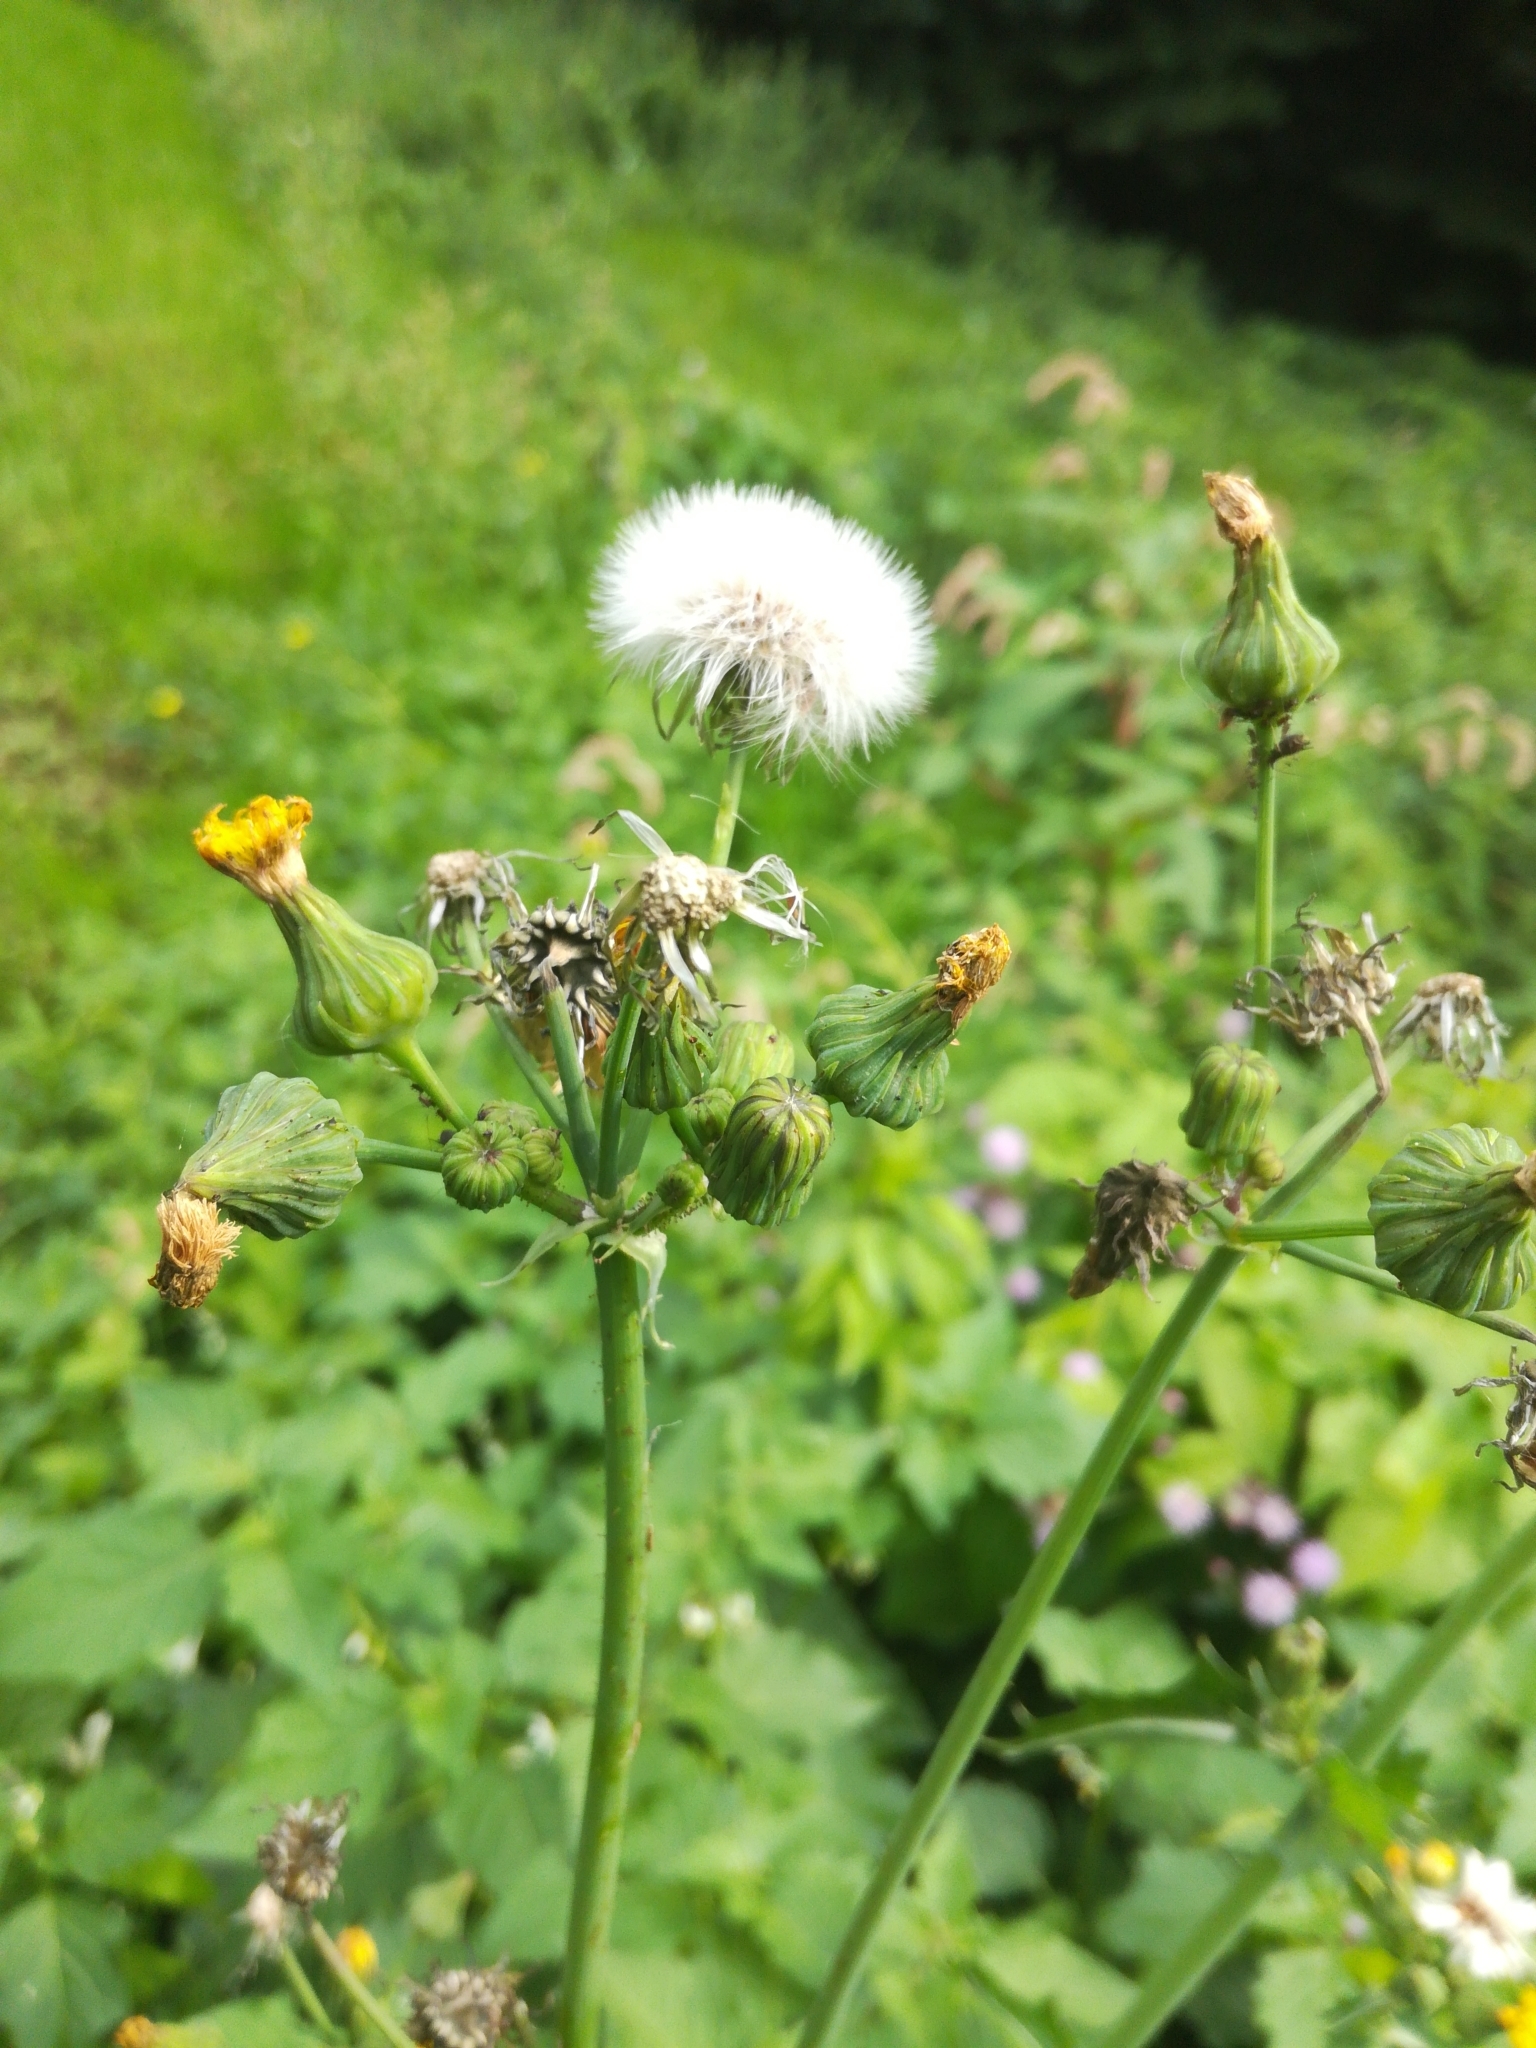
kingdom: Plantae
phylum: Tracheophyta
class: Magnoliopsida
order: Asterales
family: Asteraceae
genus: Sonchus
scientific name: Sonchus asper
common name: Prickly sow-thistle
